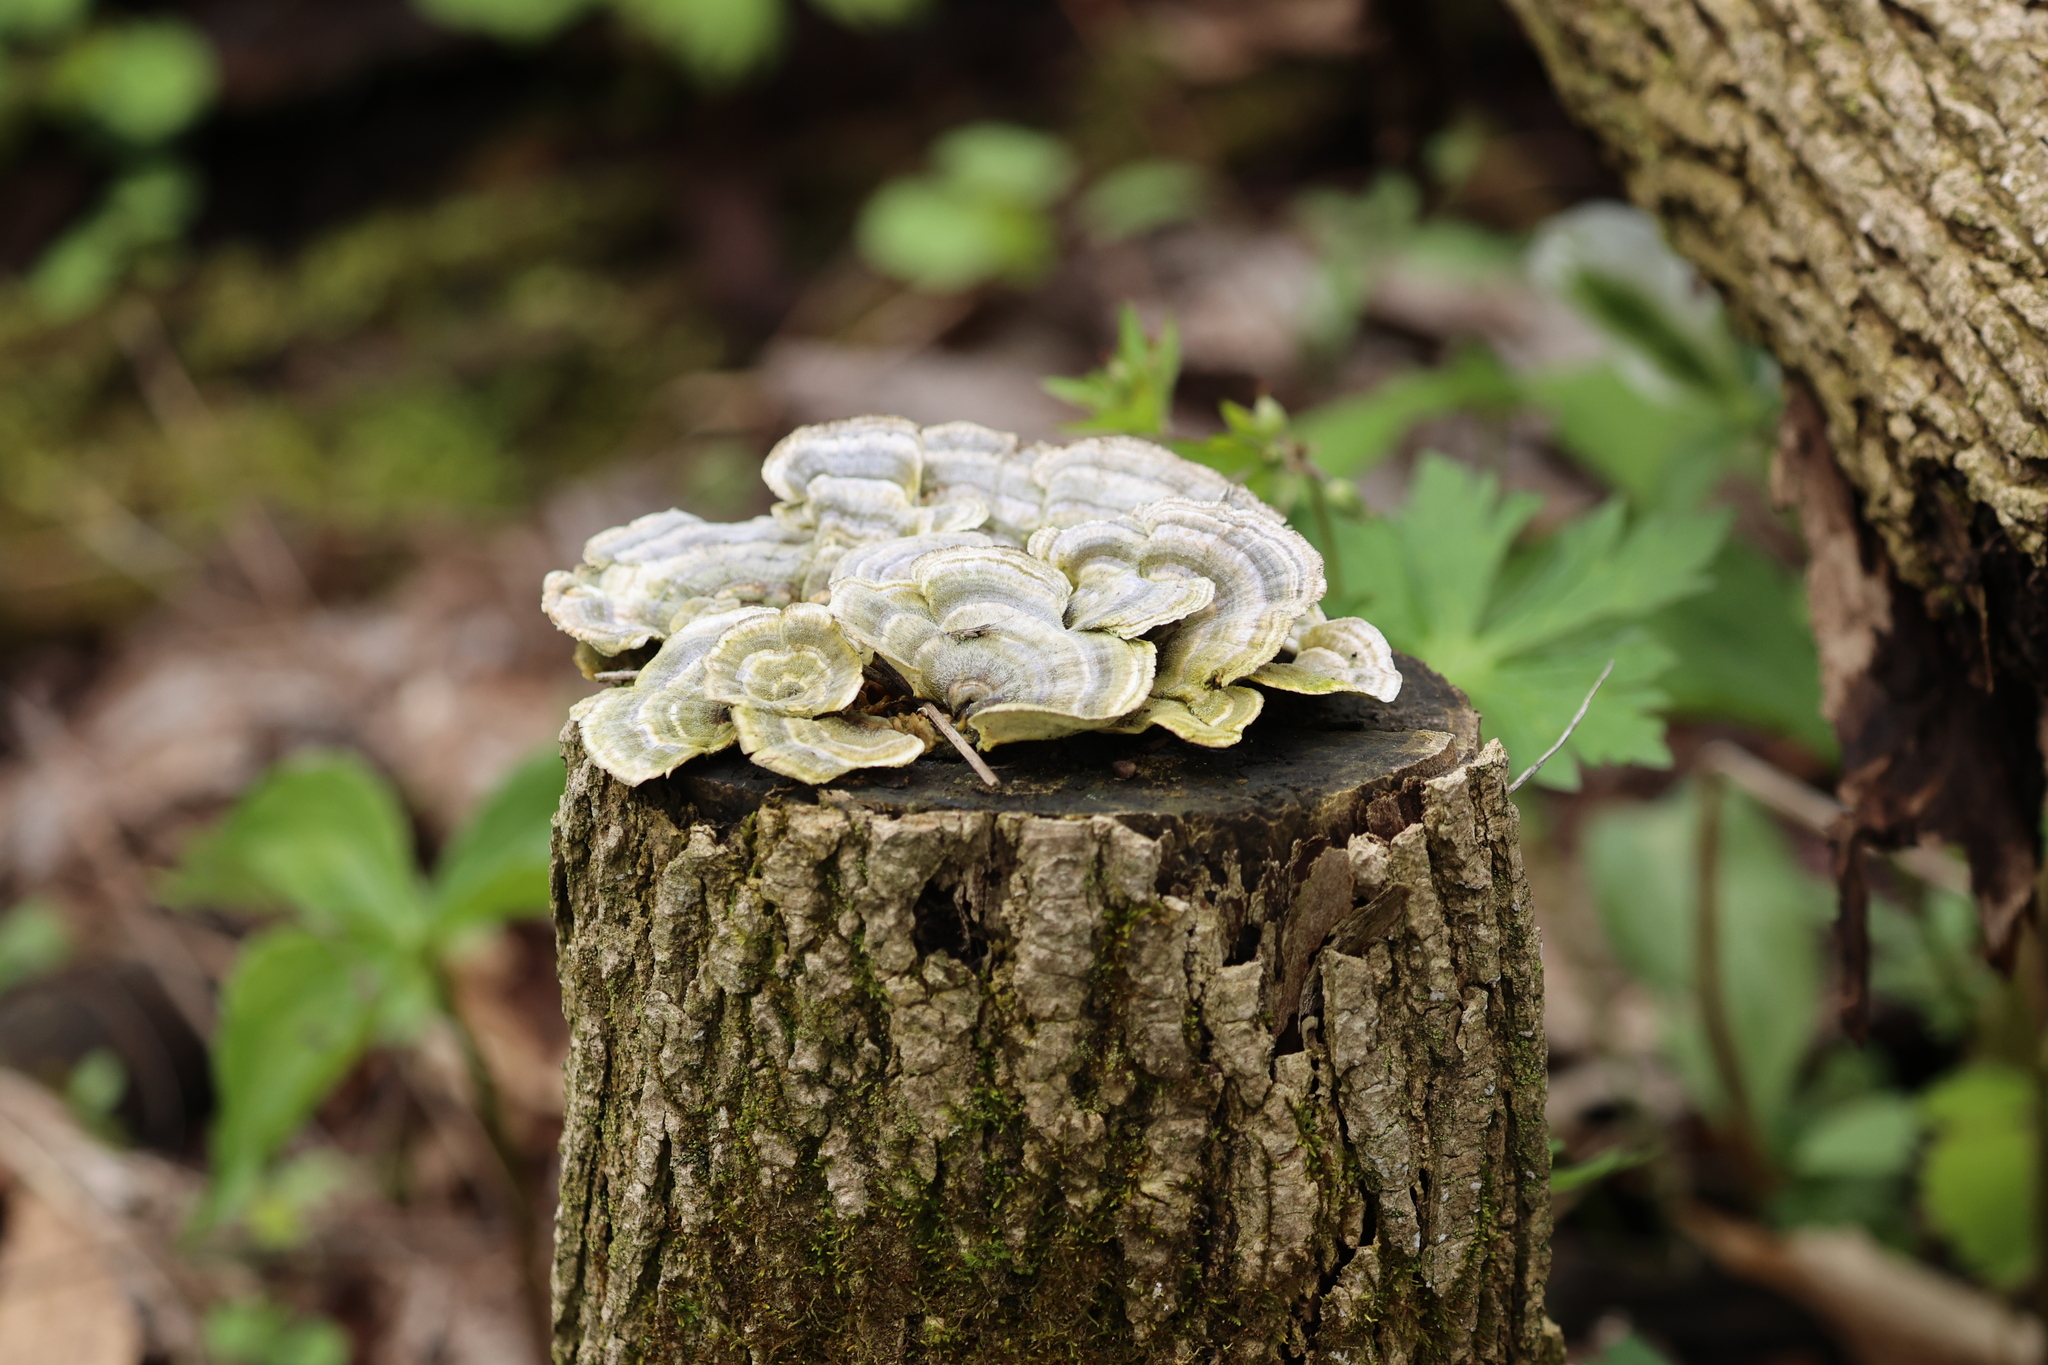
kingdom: Fungi
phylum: Basidiomycota
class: Agaricomycetes
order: Polyporales
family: Polyporaceae
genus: Trametes
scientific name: Trametes versicolor
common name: Turkeytail
